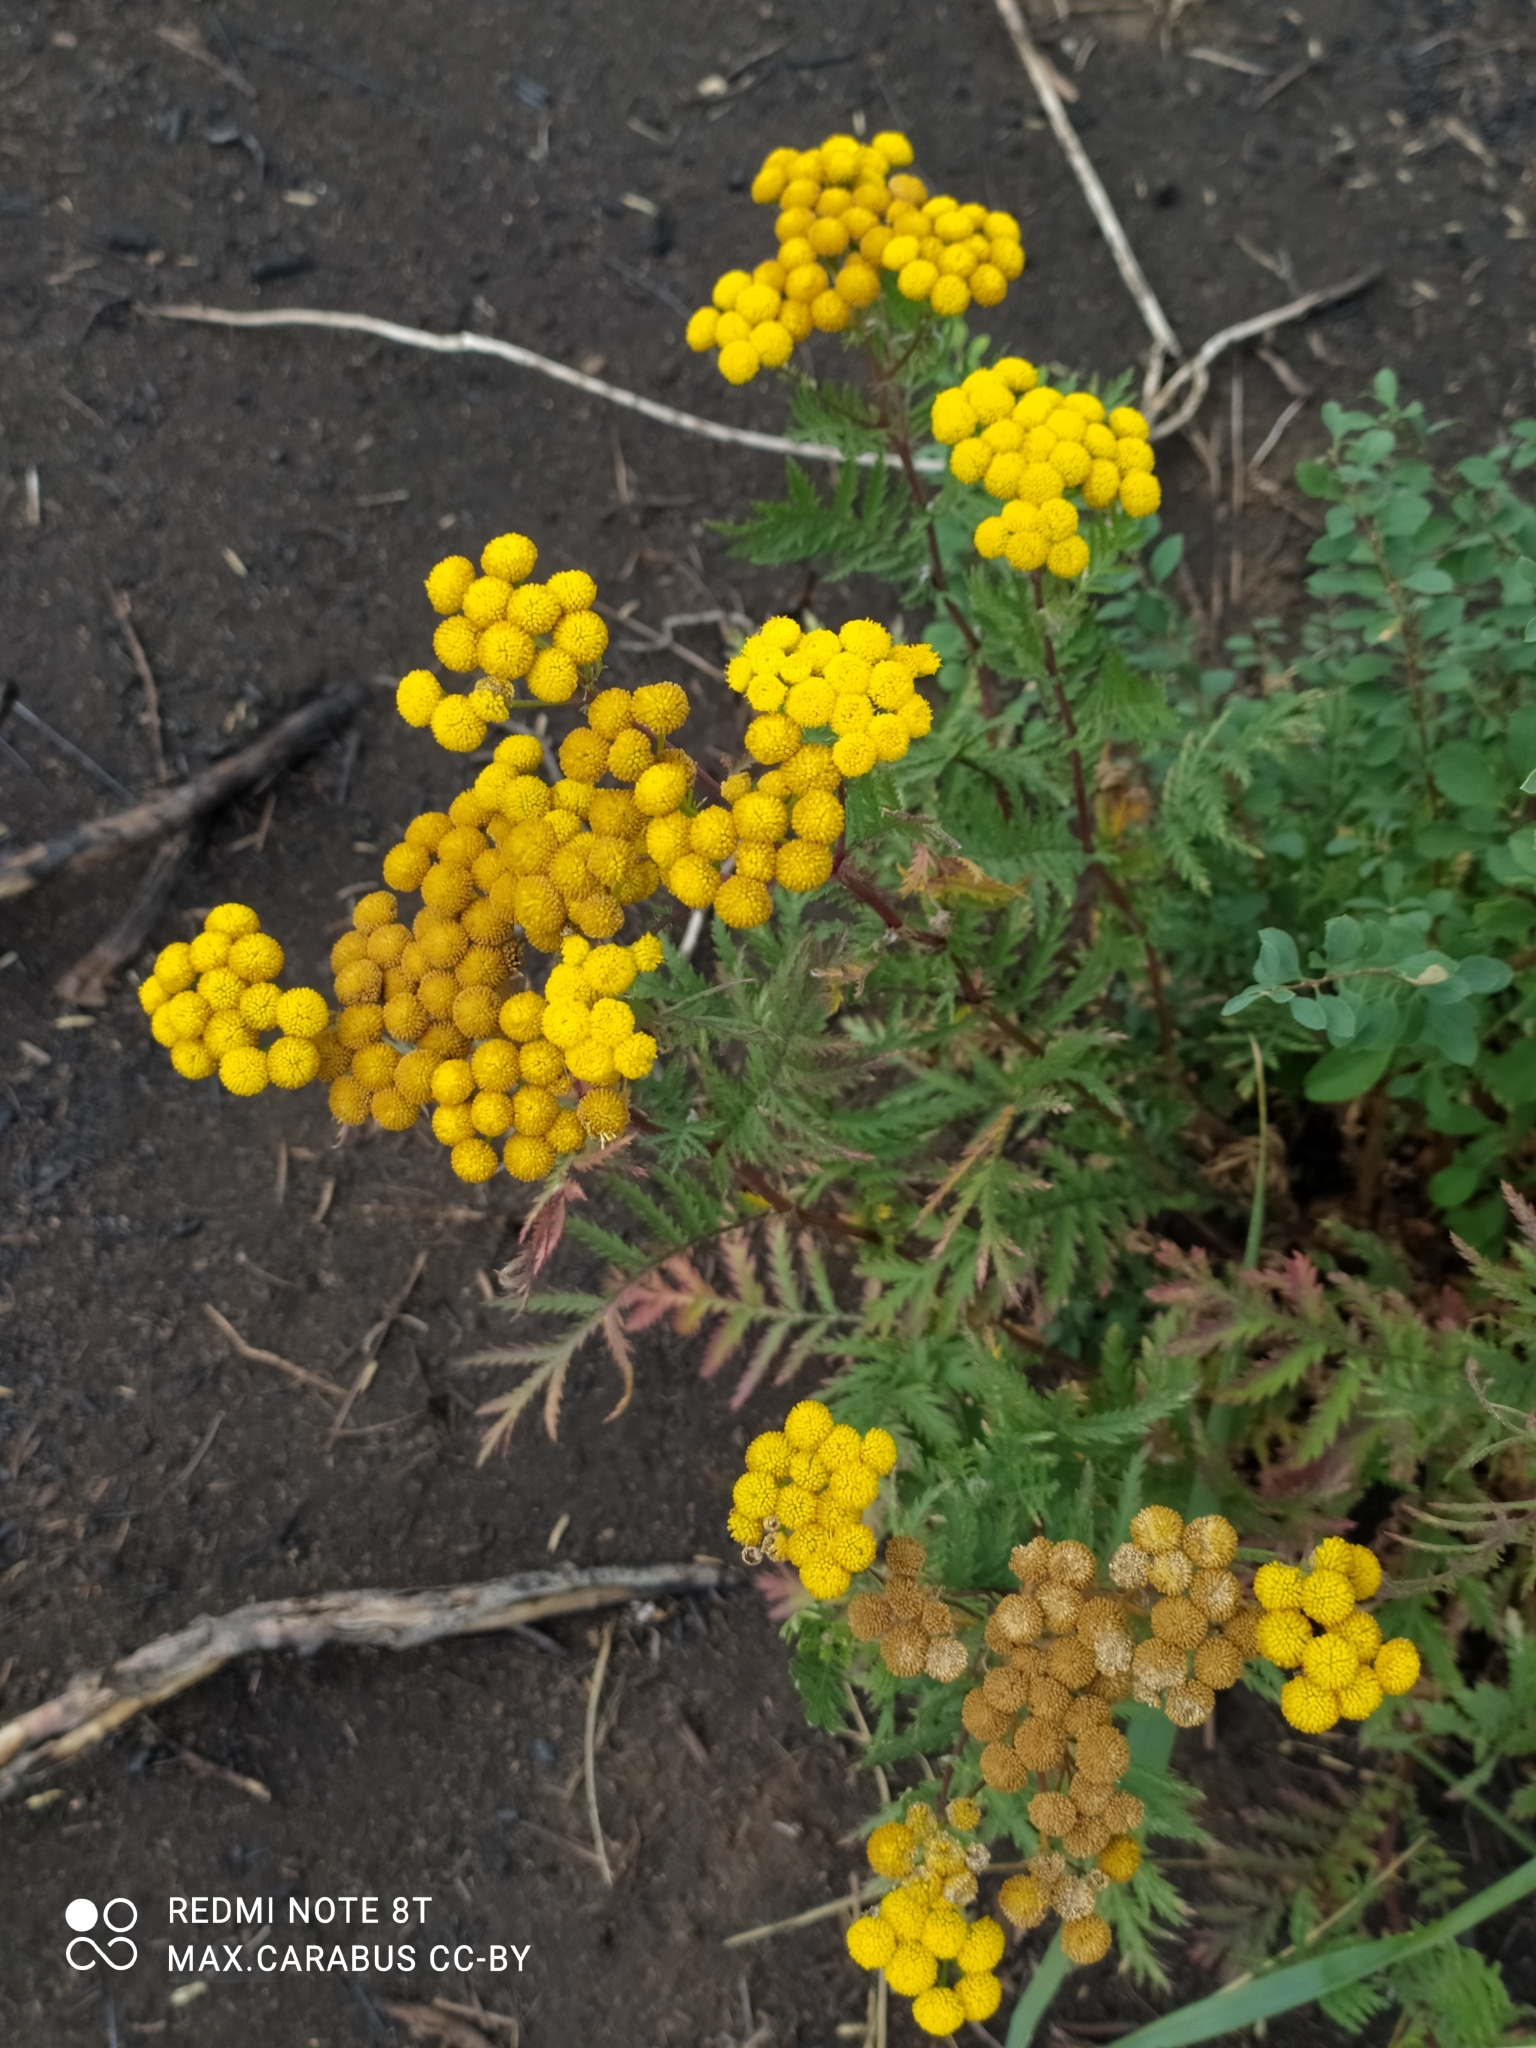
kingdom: Plantae
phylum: Tracheophyta
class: Magnoliopsida
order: Asterales
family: Asteraceae
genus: Tanacetum
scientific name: Tanacetum vulgare
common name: Common tansy
